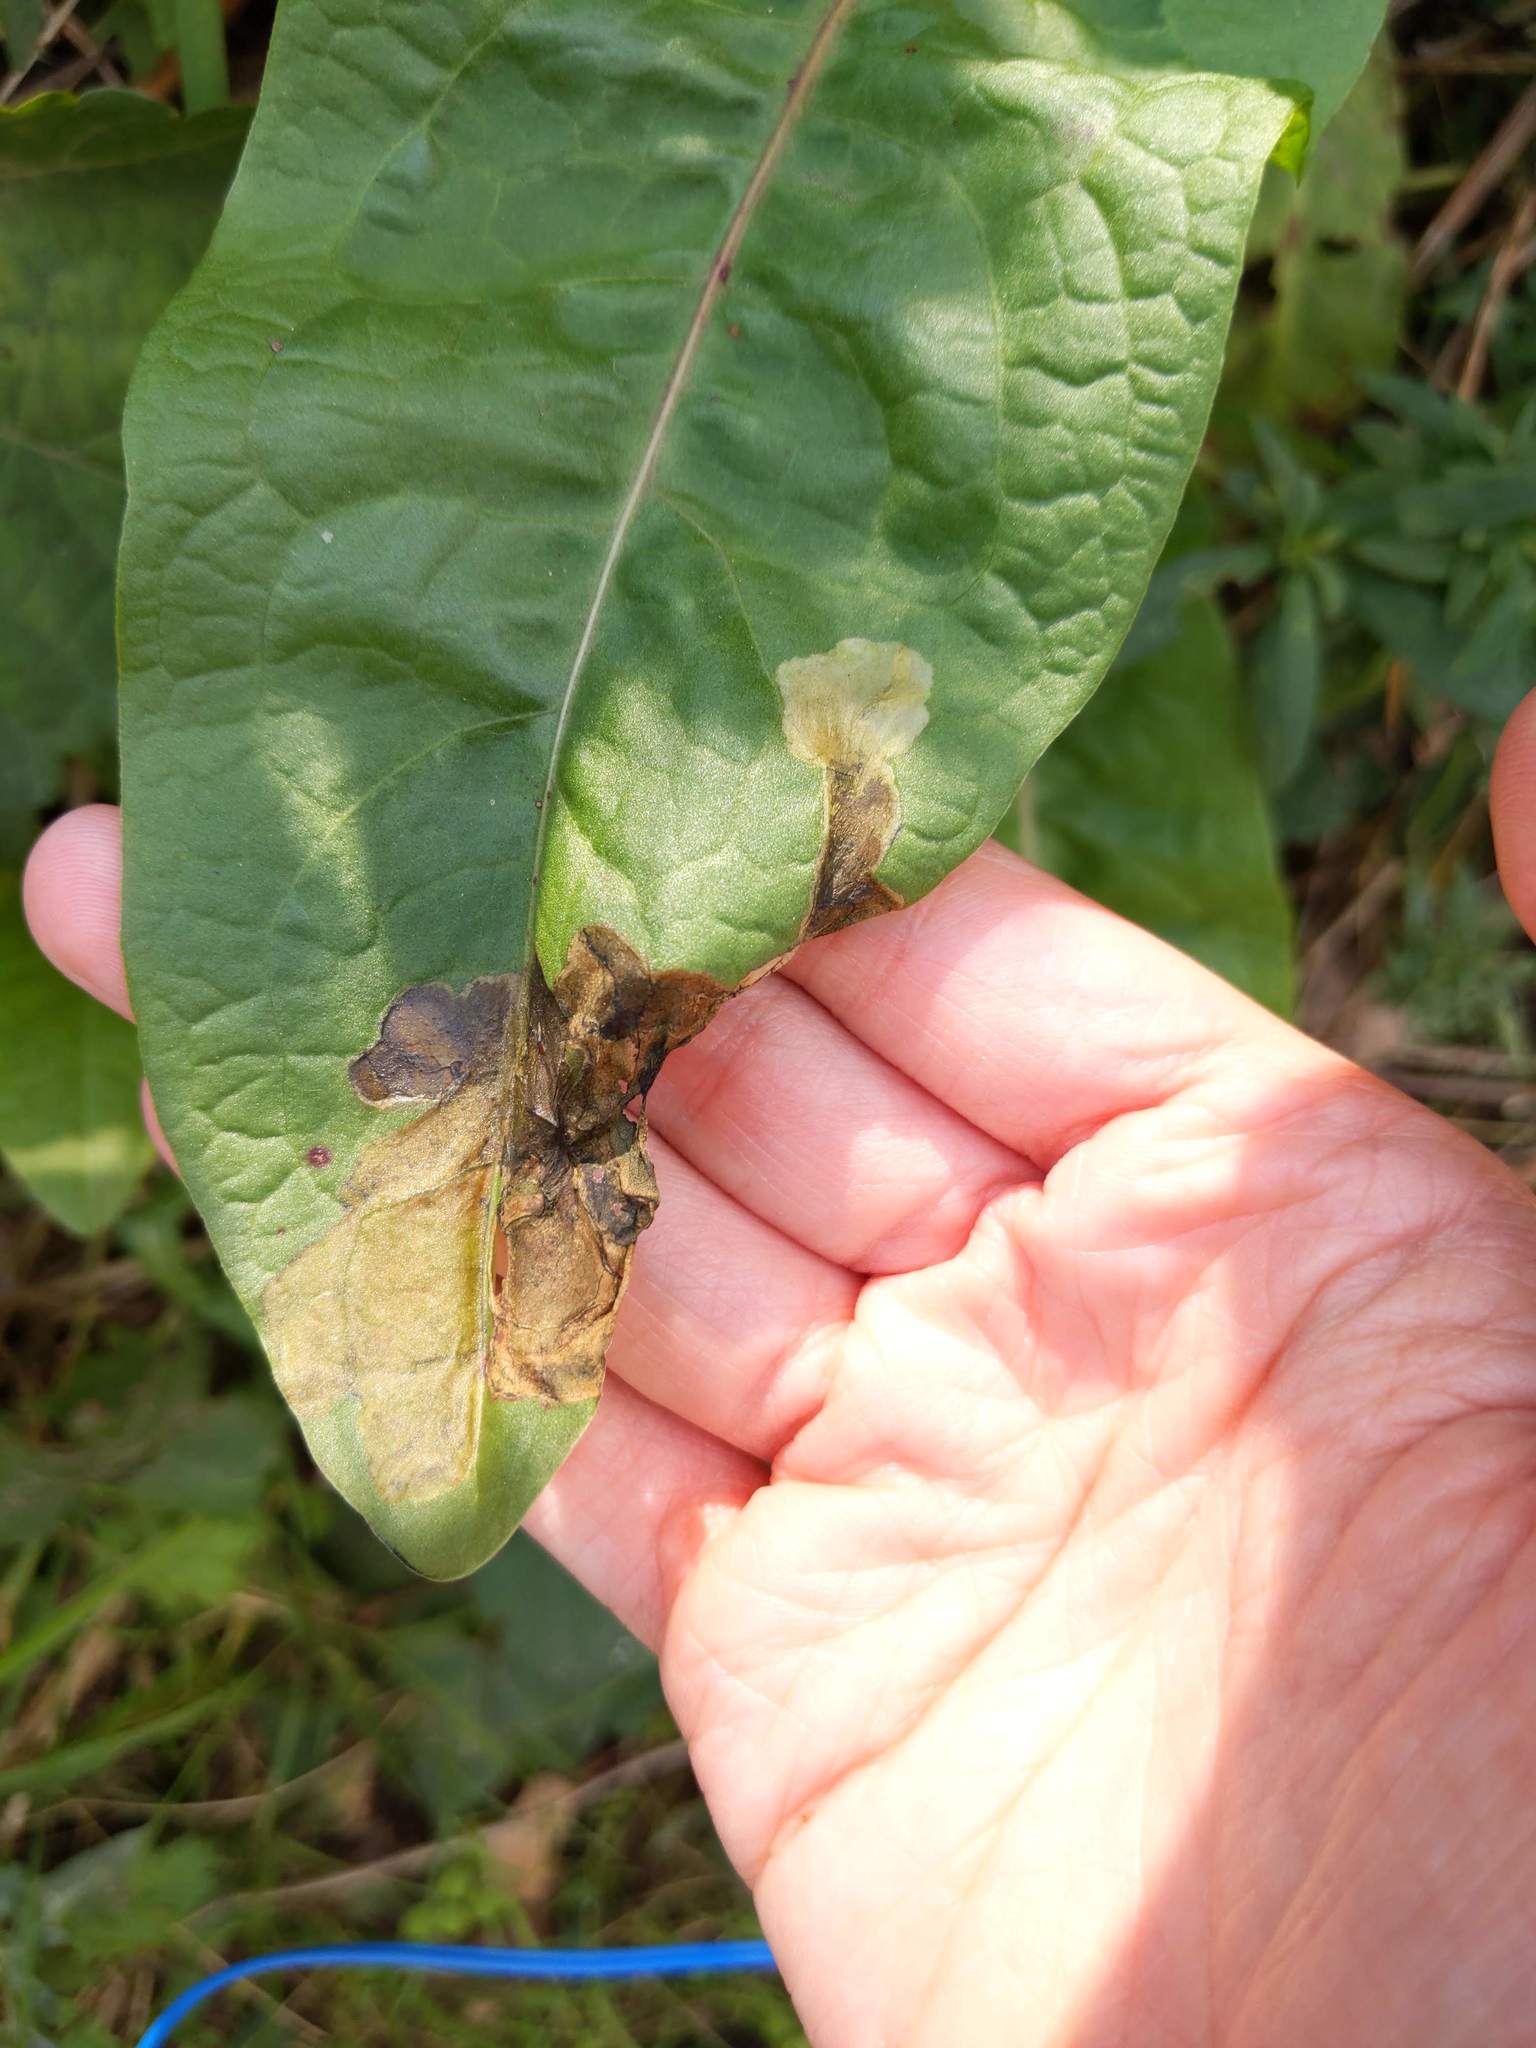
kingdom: Animalia
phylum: Arthropoda
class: Insecta
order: Diptera
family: Anthomyiidae
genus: Pegomya
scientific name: Pegomya bicolor
